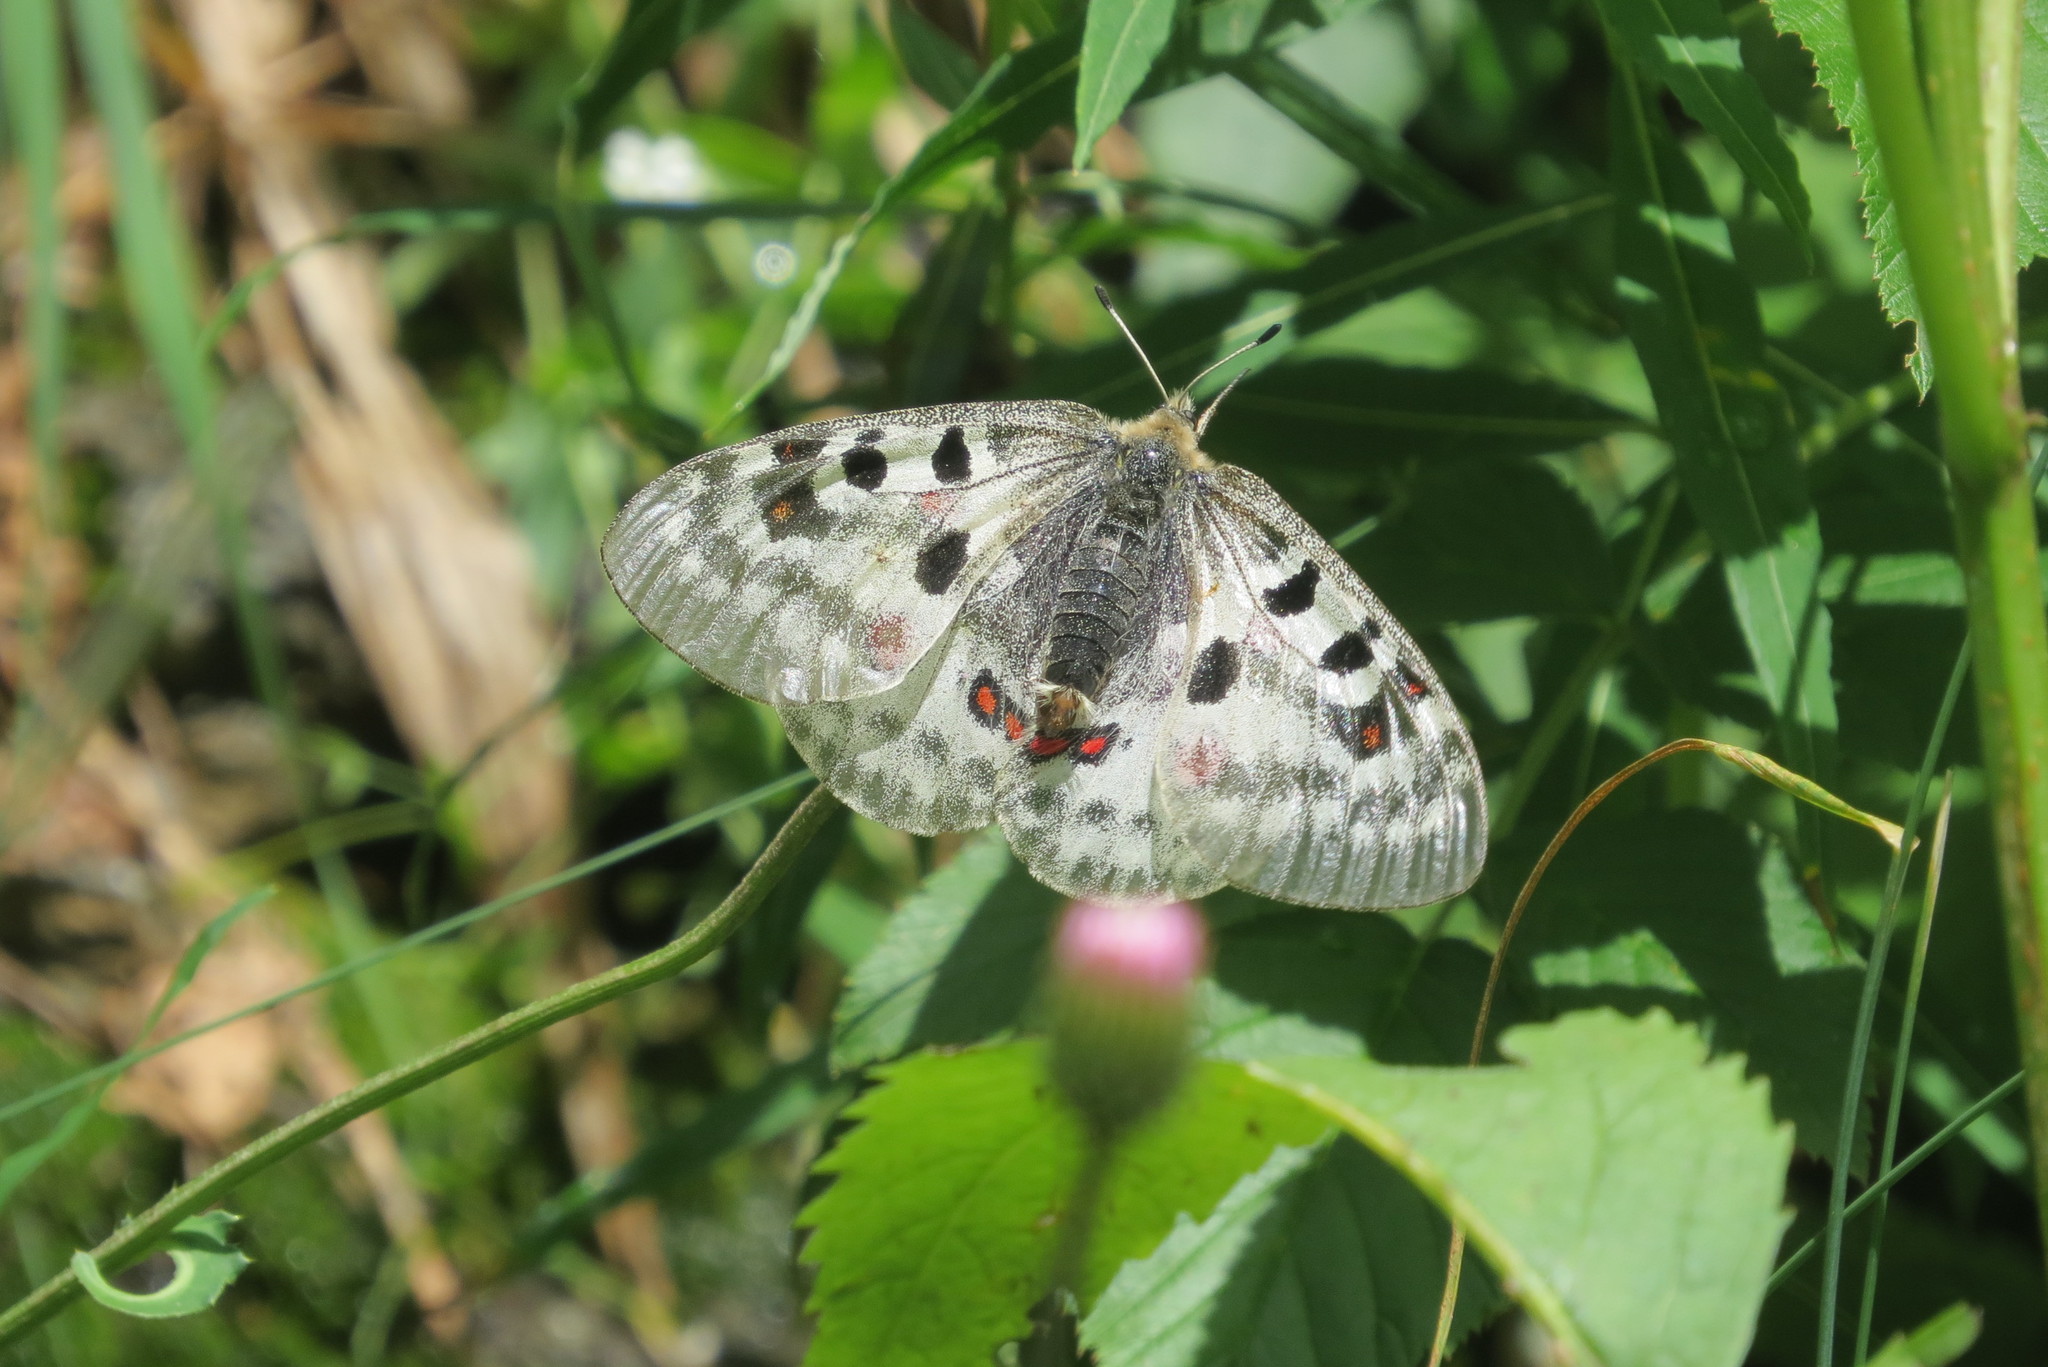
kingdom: Animalia
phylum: Arthropoda
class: Insecta
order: Lepidoptera
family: Papilionidae
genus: Parnassius
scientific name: Parnassius apollo
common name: Apollo
